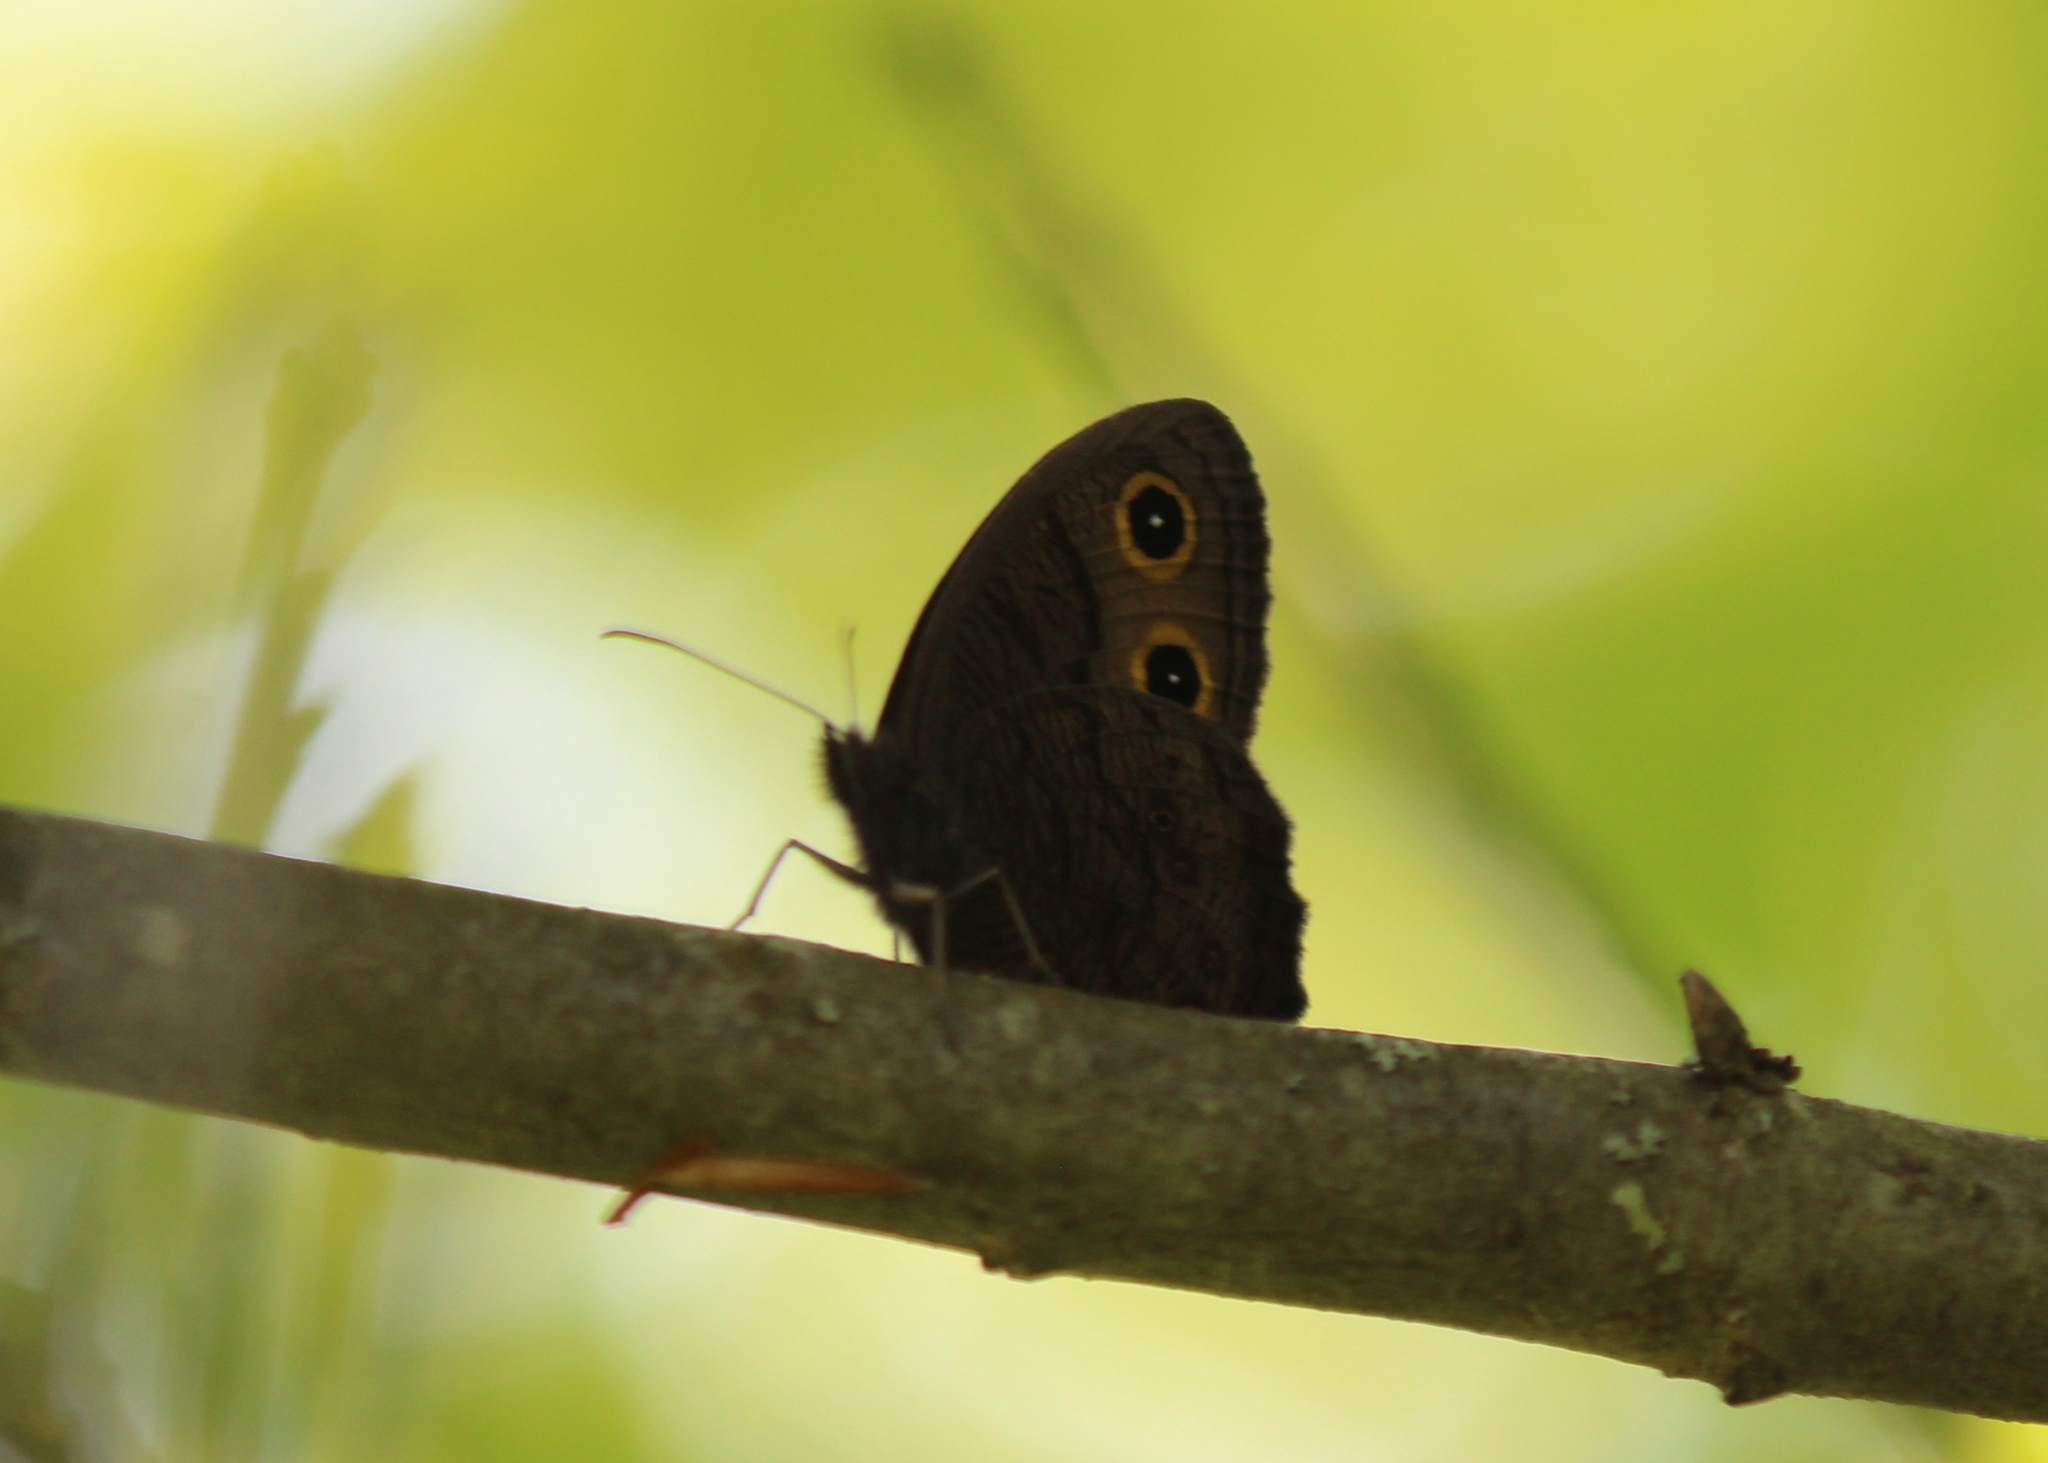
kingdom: Animalia
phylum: Arthropoda
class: Insecta
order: Lepidoptera
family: Nymphalidae
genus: Cercyonis
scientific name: Cercyonis pegala
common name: Common wood-nymph
